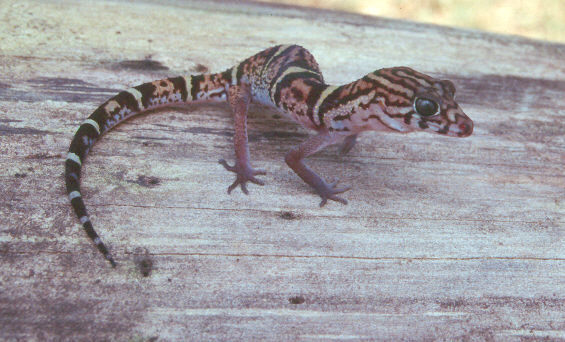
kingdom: Animalia
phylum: Chordata
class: Squamata
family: Eublepharidae
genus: Coleonyx
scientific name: Coleonyx elegans
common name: Yucatan banded gecko
